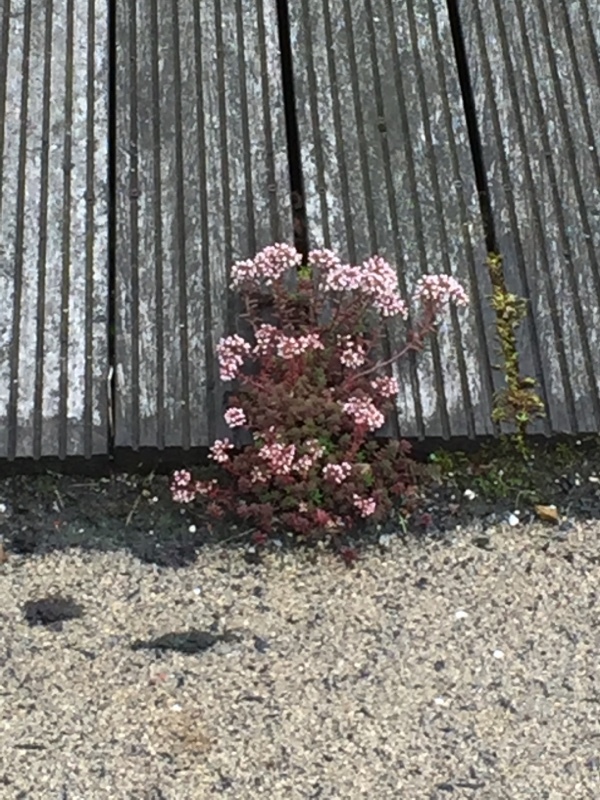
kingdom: Plantae
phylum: Tracheophyta
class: Magnoliopsida
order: Saxifragales
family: Crassulaceae
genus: Sedum
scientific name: Sedum album
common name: White stonecrop
